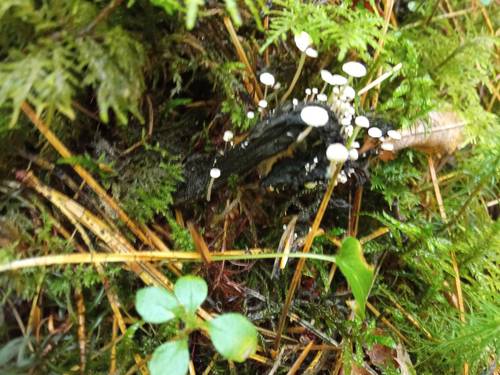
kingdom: Fungi
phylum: Basidiomycota
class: Agaricomycetes
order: Agaricales
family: Tricholomataceae
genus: Collybia
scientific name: Collybia
